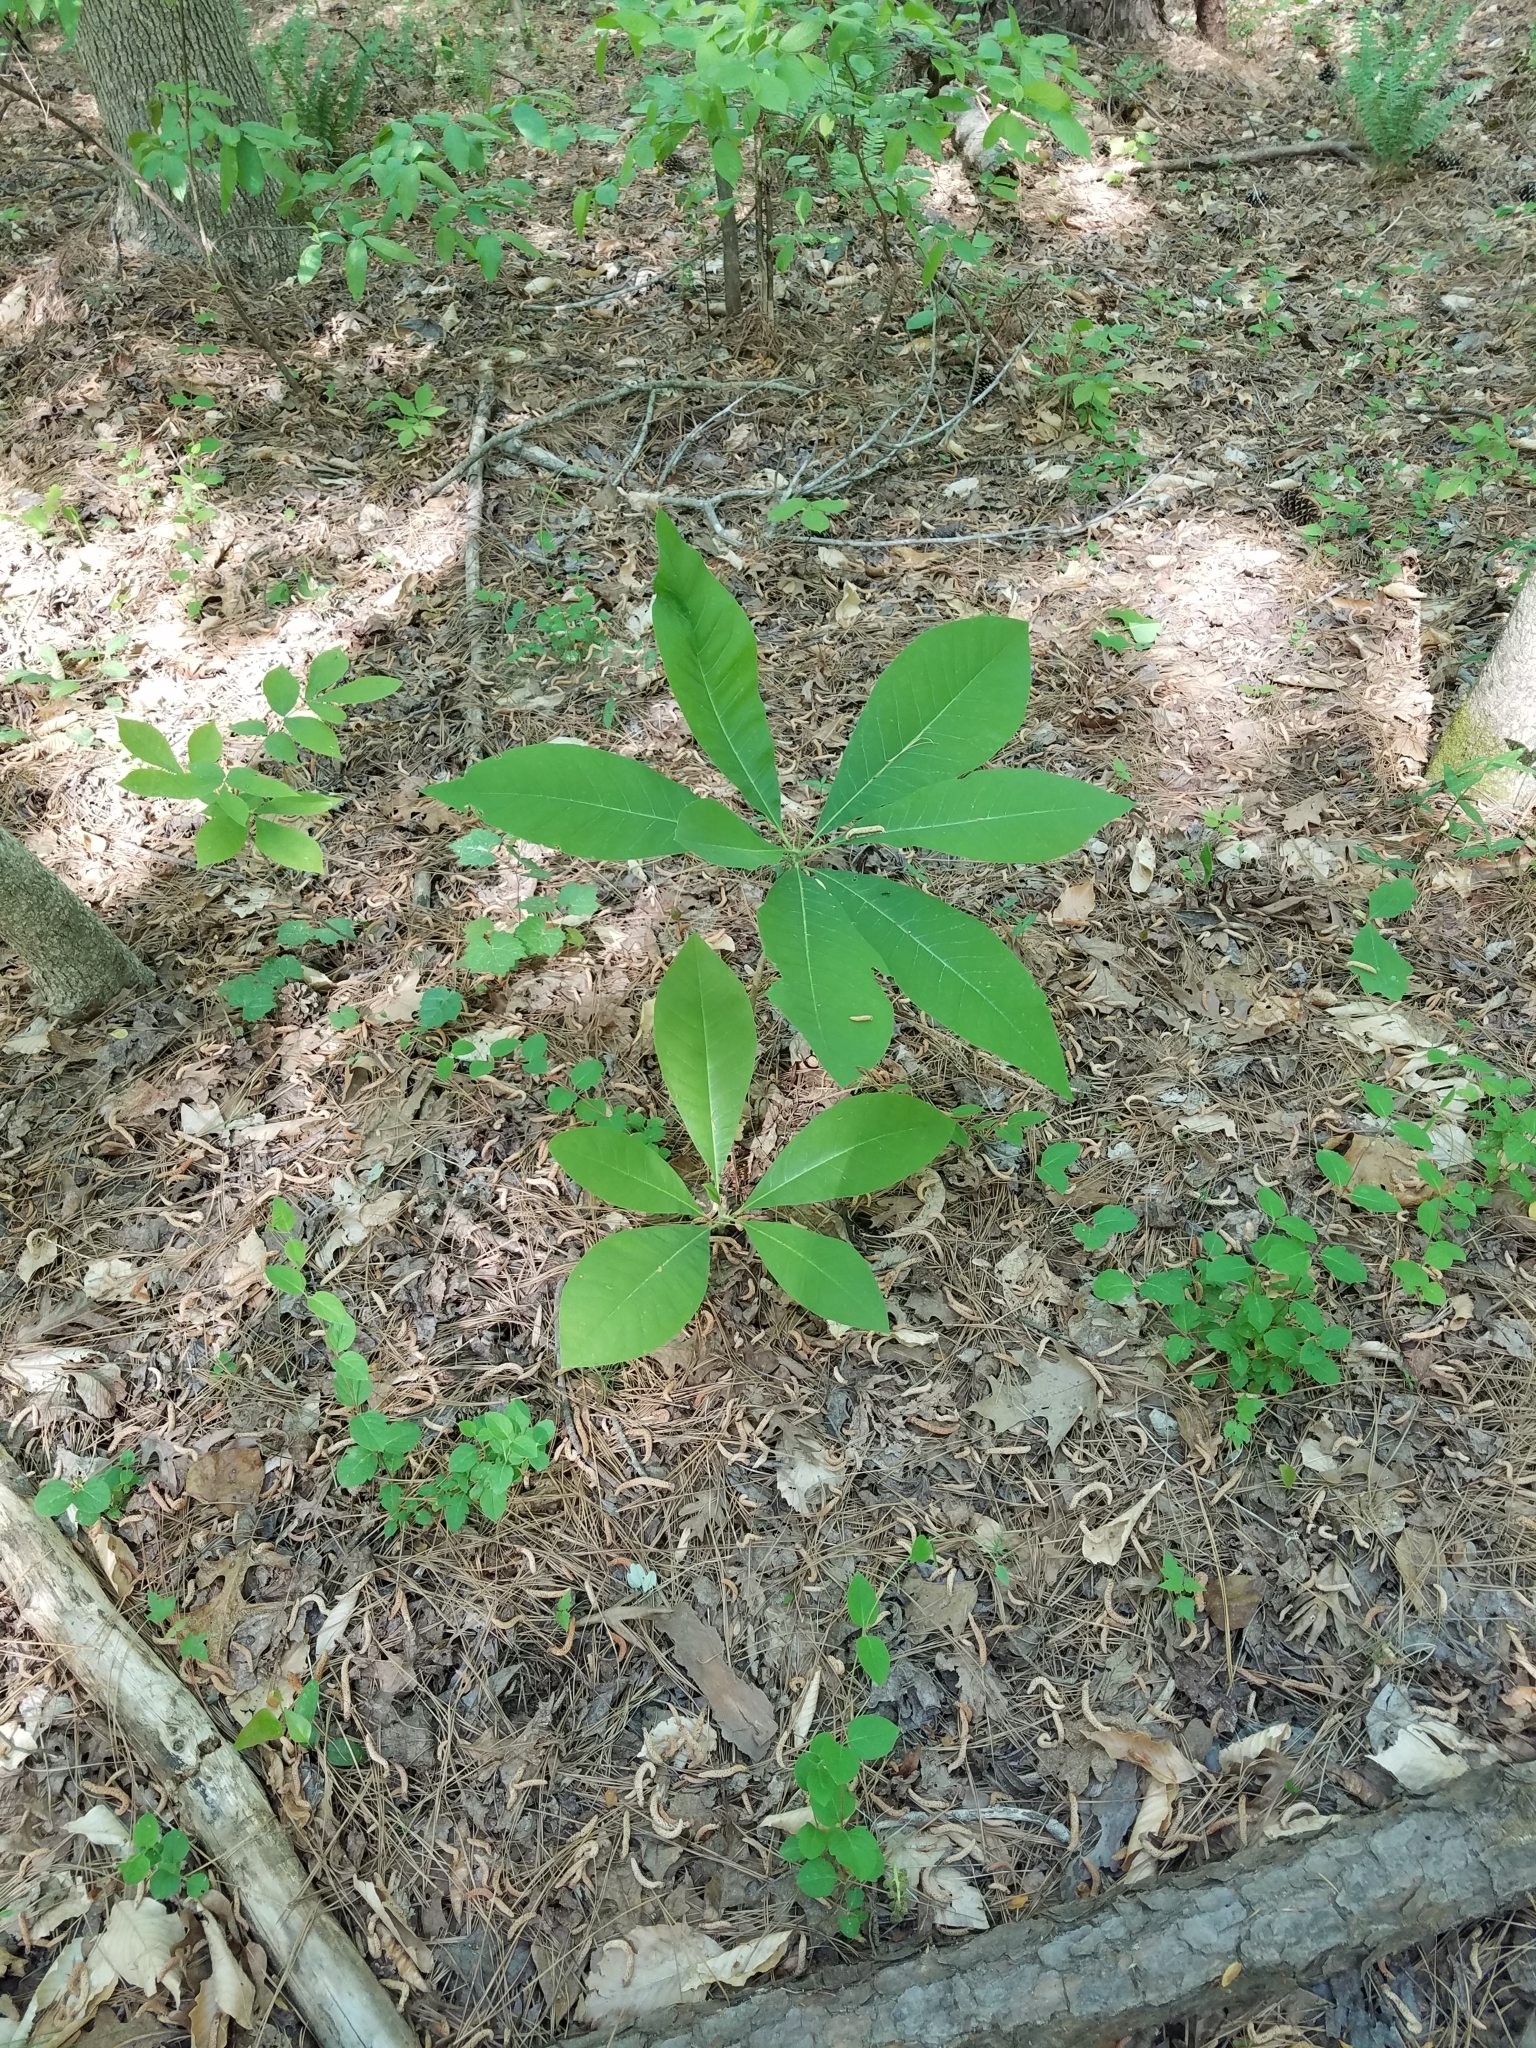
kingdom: Plantae
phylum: Tracheophyta
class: Magnoliopsida
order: Magnoliales
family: Magnoliaceae
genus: Magnolia
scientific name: Magnolia tripetala
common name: Umbrella magnolia
